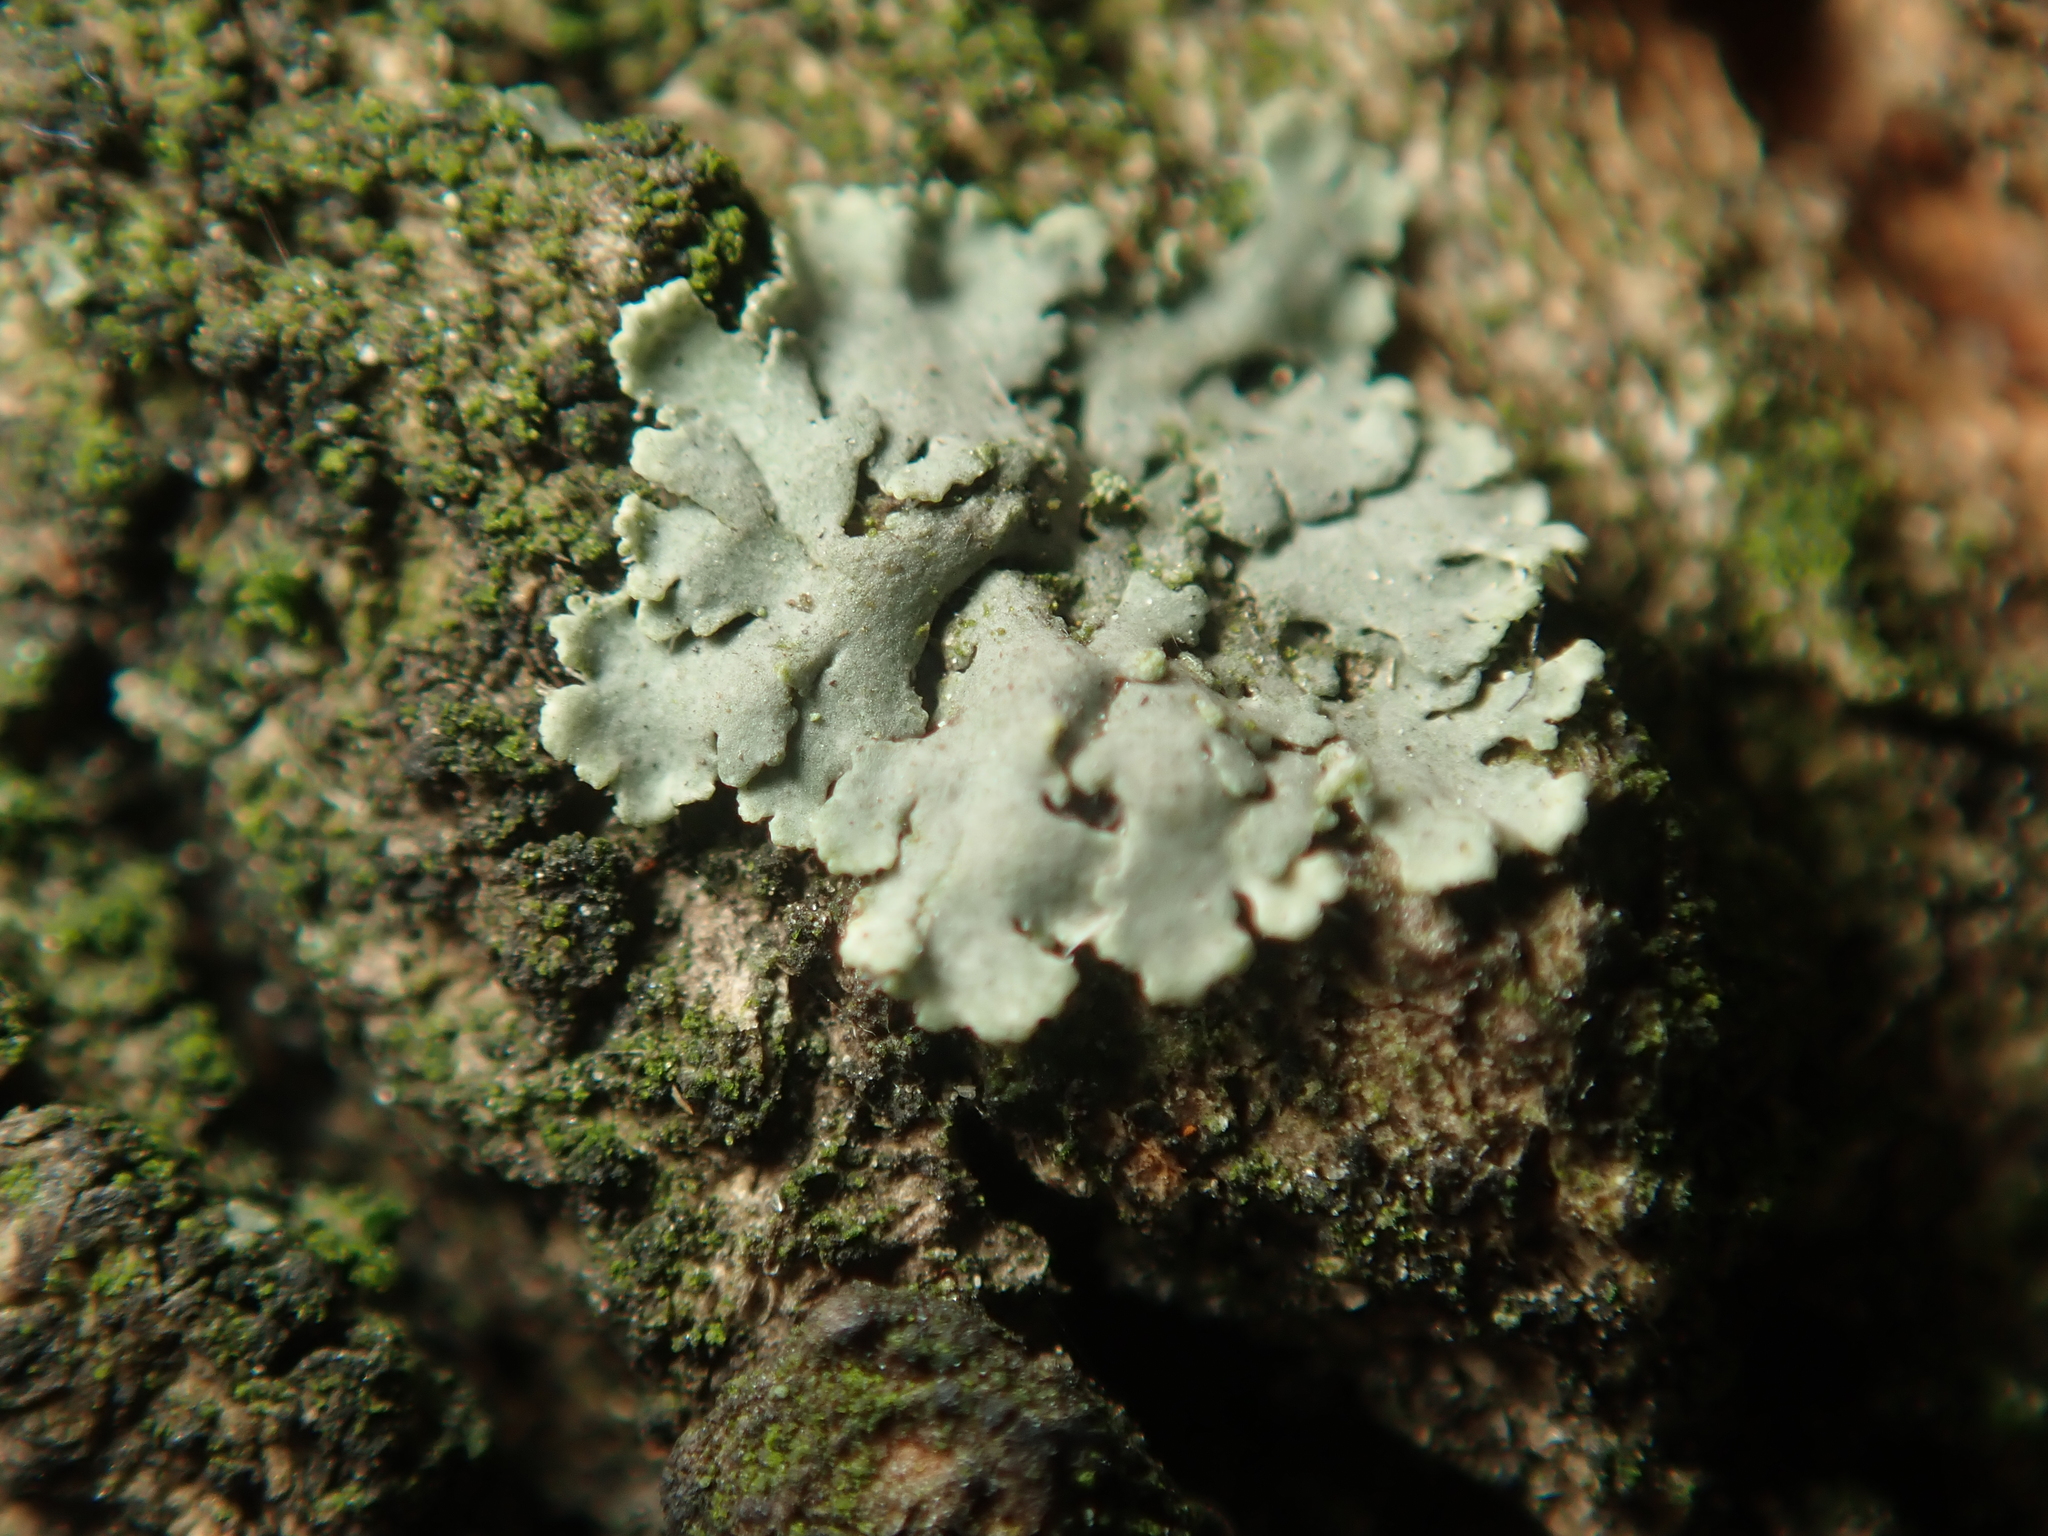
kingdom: Fungi
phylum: Ascomycota
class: Lecanoromycetes
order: Caliciales
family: Physciaceae
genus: Phaeophyscia
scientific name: Phaeophyscia orbicularis
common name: Mealy shadow lichen
